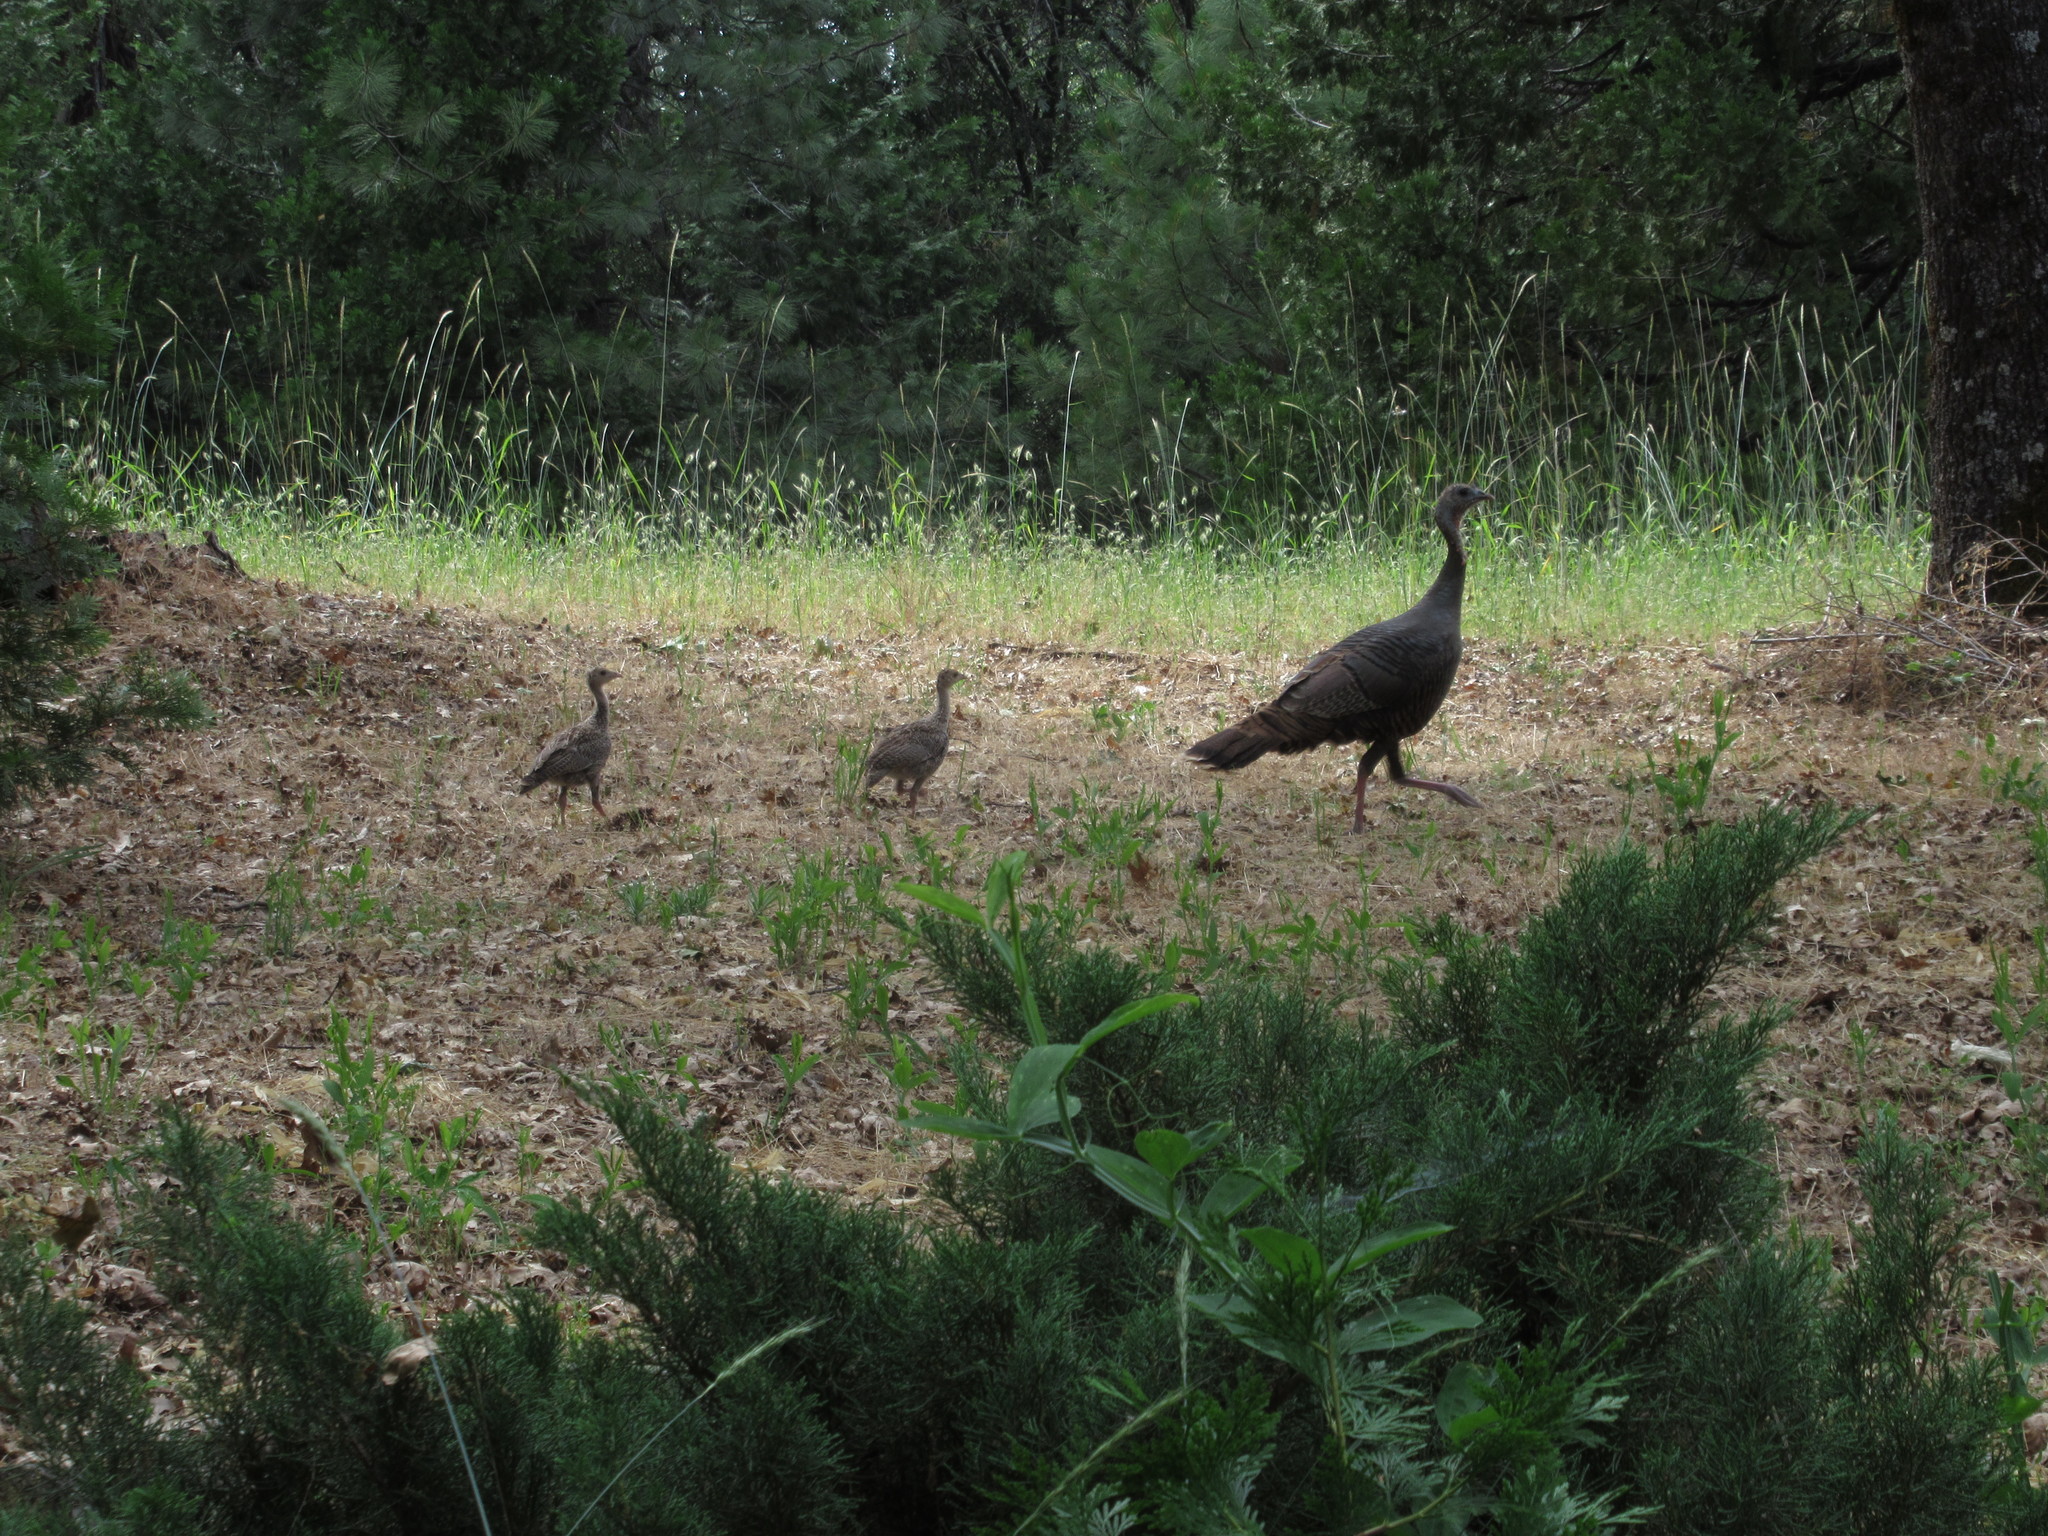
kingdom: Animalia
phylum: Chordata
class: Aves
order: Galliformes
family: Phasianidae
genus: Meleagris
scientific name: Meleagris gallopavo
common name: Wild turkey
